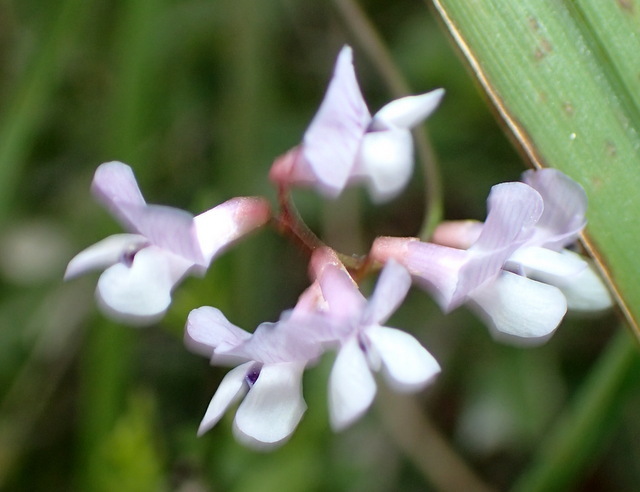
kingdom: Plantae
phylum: Tracheophyta
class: Magnoliopsida
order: Fabales
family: Fabaceae
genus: Vicia
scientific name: Vicia acutifolia
